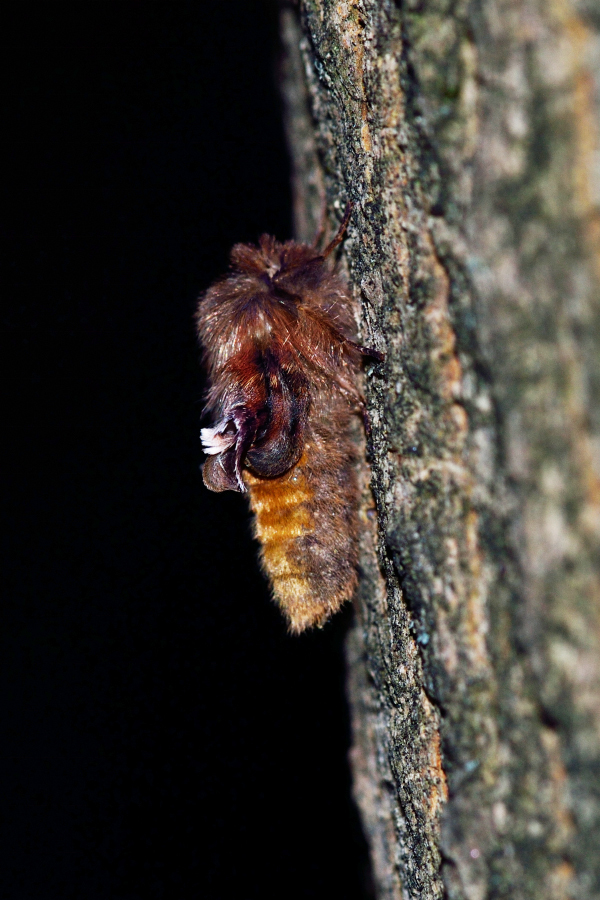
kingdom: Animalia
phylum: Arthropoda
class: Insecta
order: Lepidoptera
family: Notodontidae
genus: Ptilophora
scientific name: Ptilophora plumigera
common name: Plumed prominent
